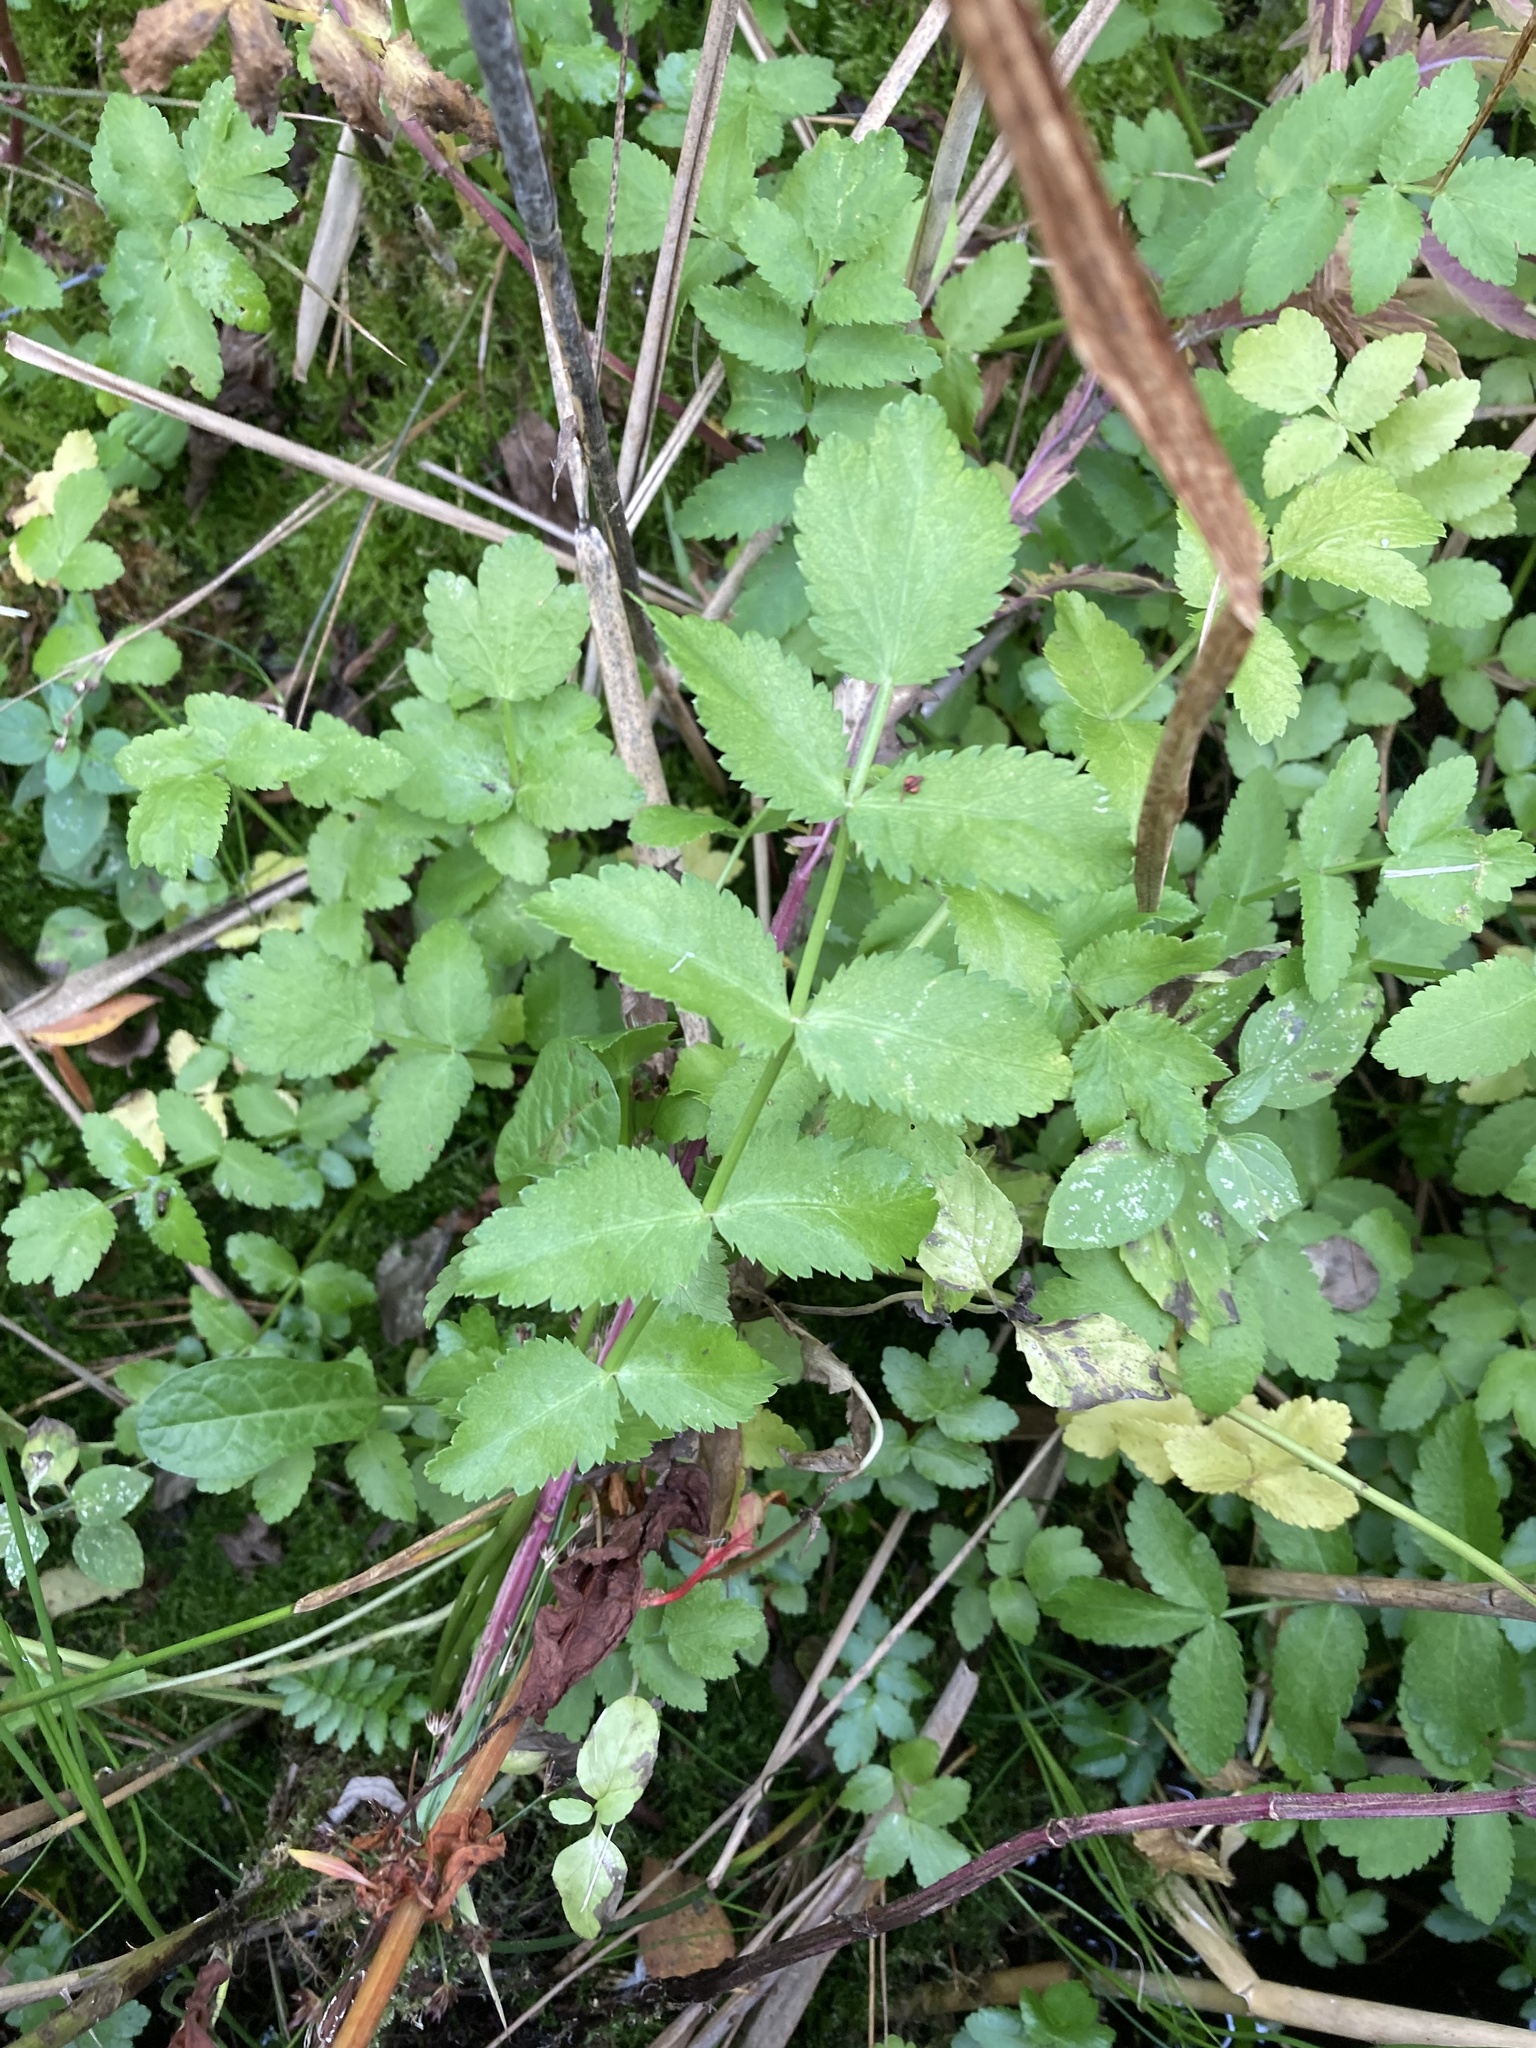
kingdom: Plantae
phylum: Tracheophyta
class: Magnoliopsida
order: Apiales
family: Apiaceae
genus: Berula
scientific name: Berula erecta
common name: Lesser water-parsnip
